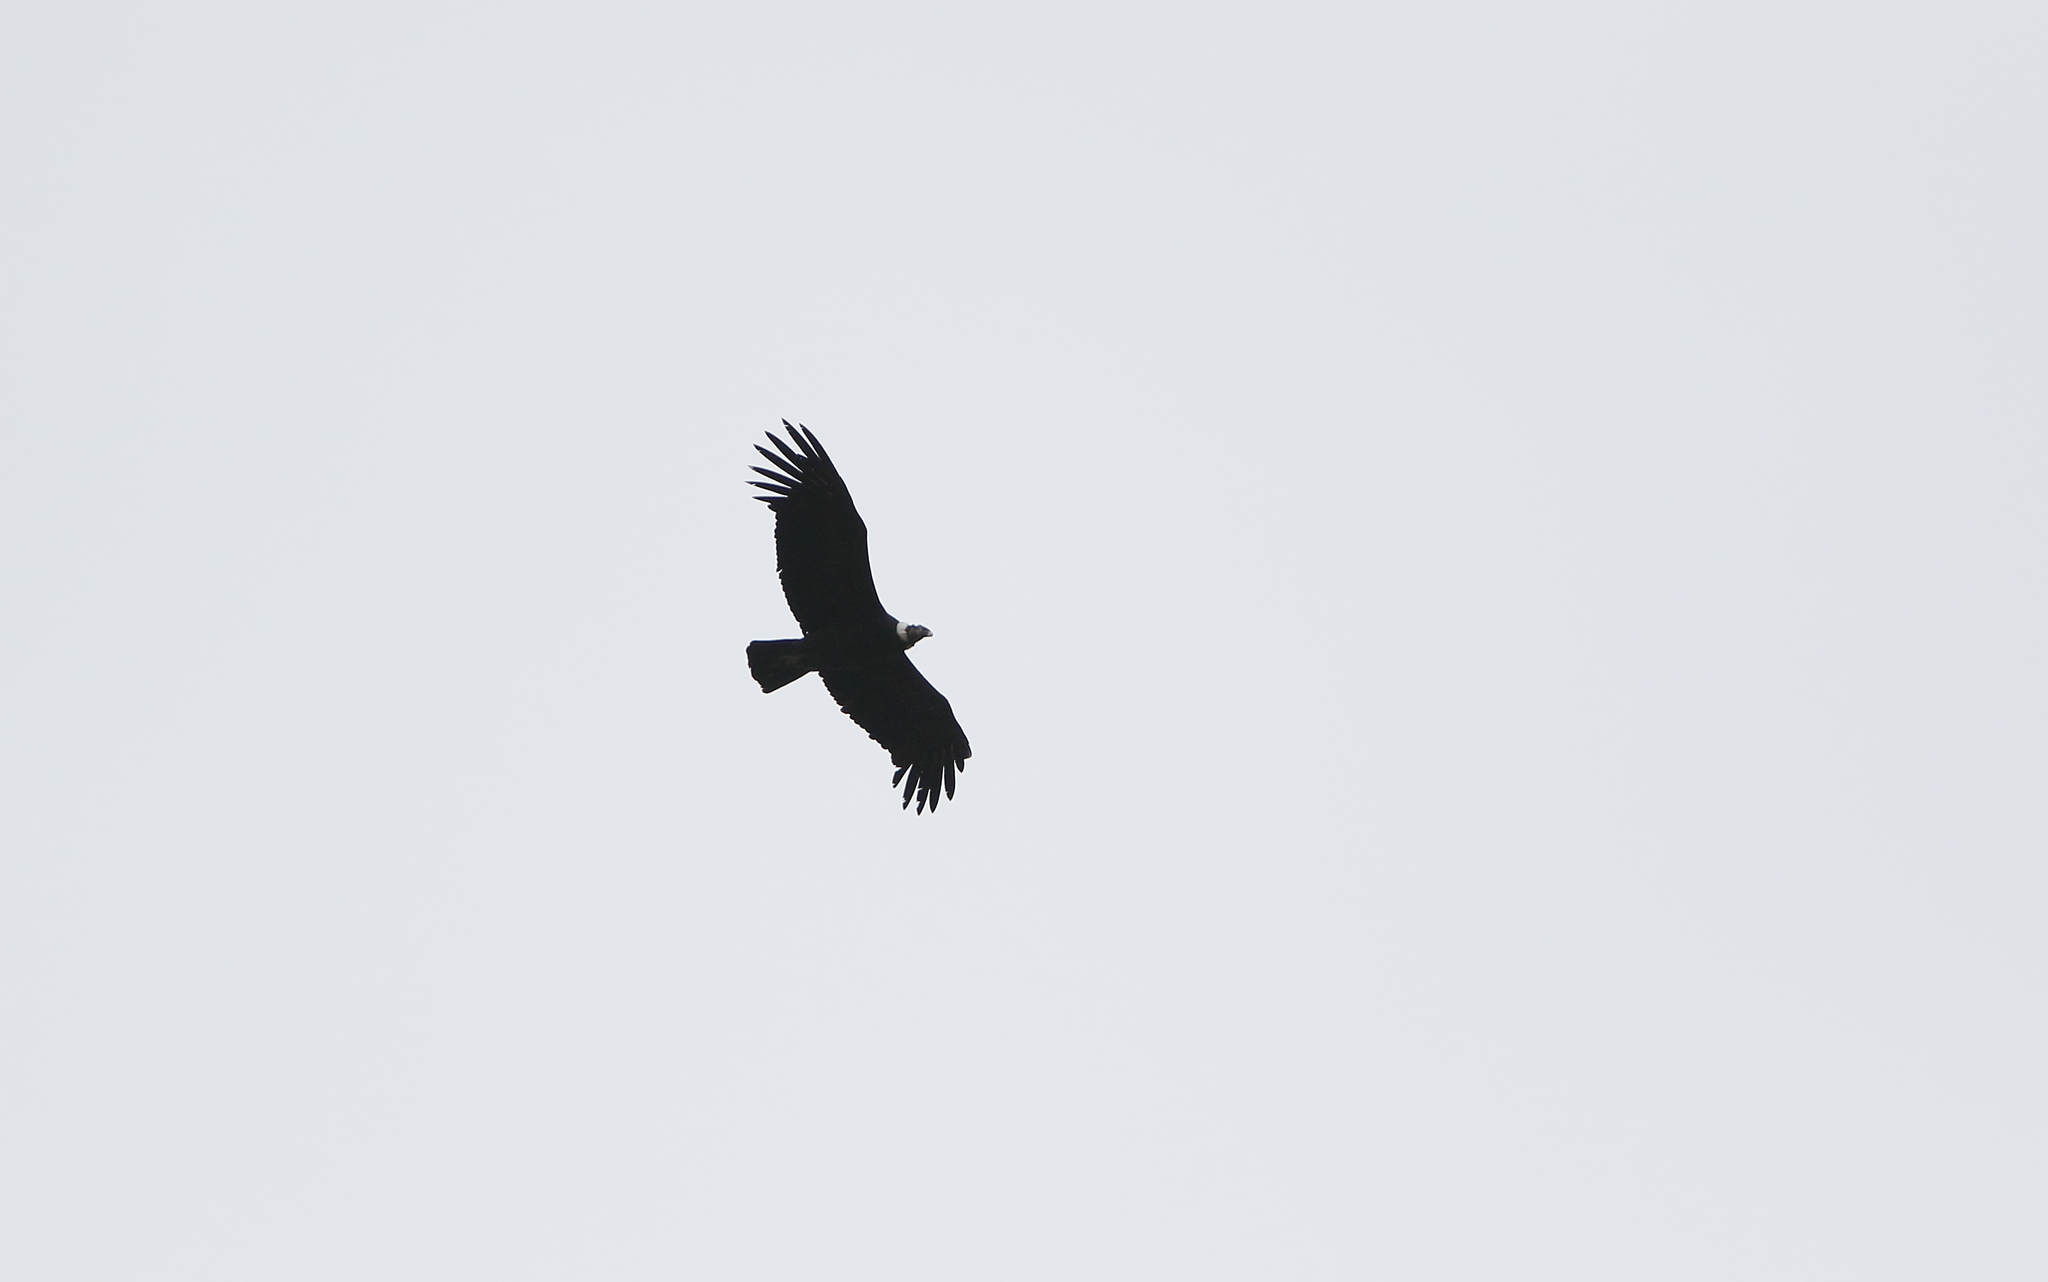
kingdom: Animalia
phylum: Chordata
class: Aves
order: Accipitriformes
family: Cathartidae
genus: Vultur
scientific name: Vultur gryphus
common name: Andean condor
